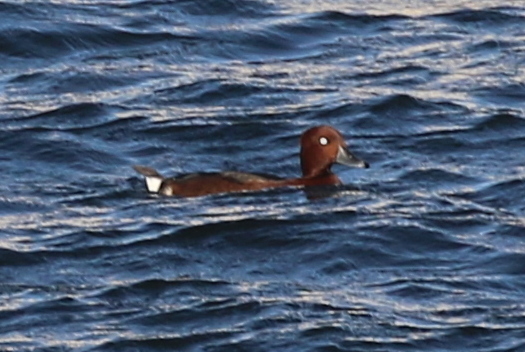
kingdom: Animalia
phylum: Chordata
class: Aves
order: Anseriformes
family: Anatidae
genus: Aythya
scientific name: Aythya nyroca
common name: Ferruginous duck
